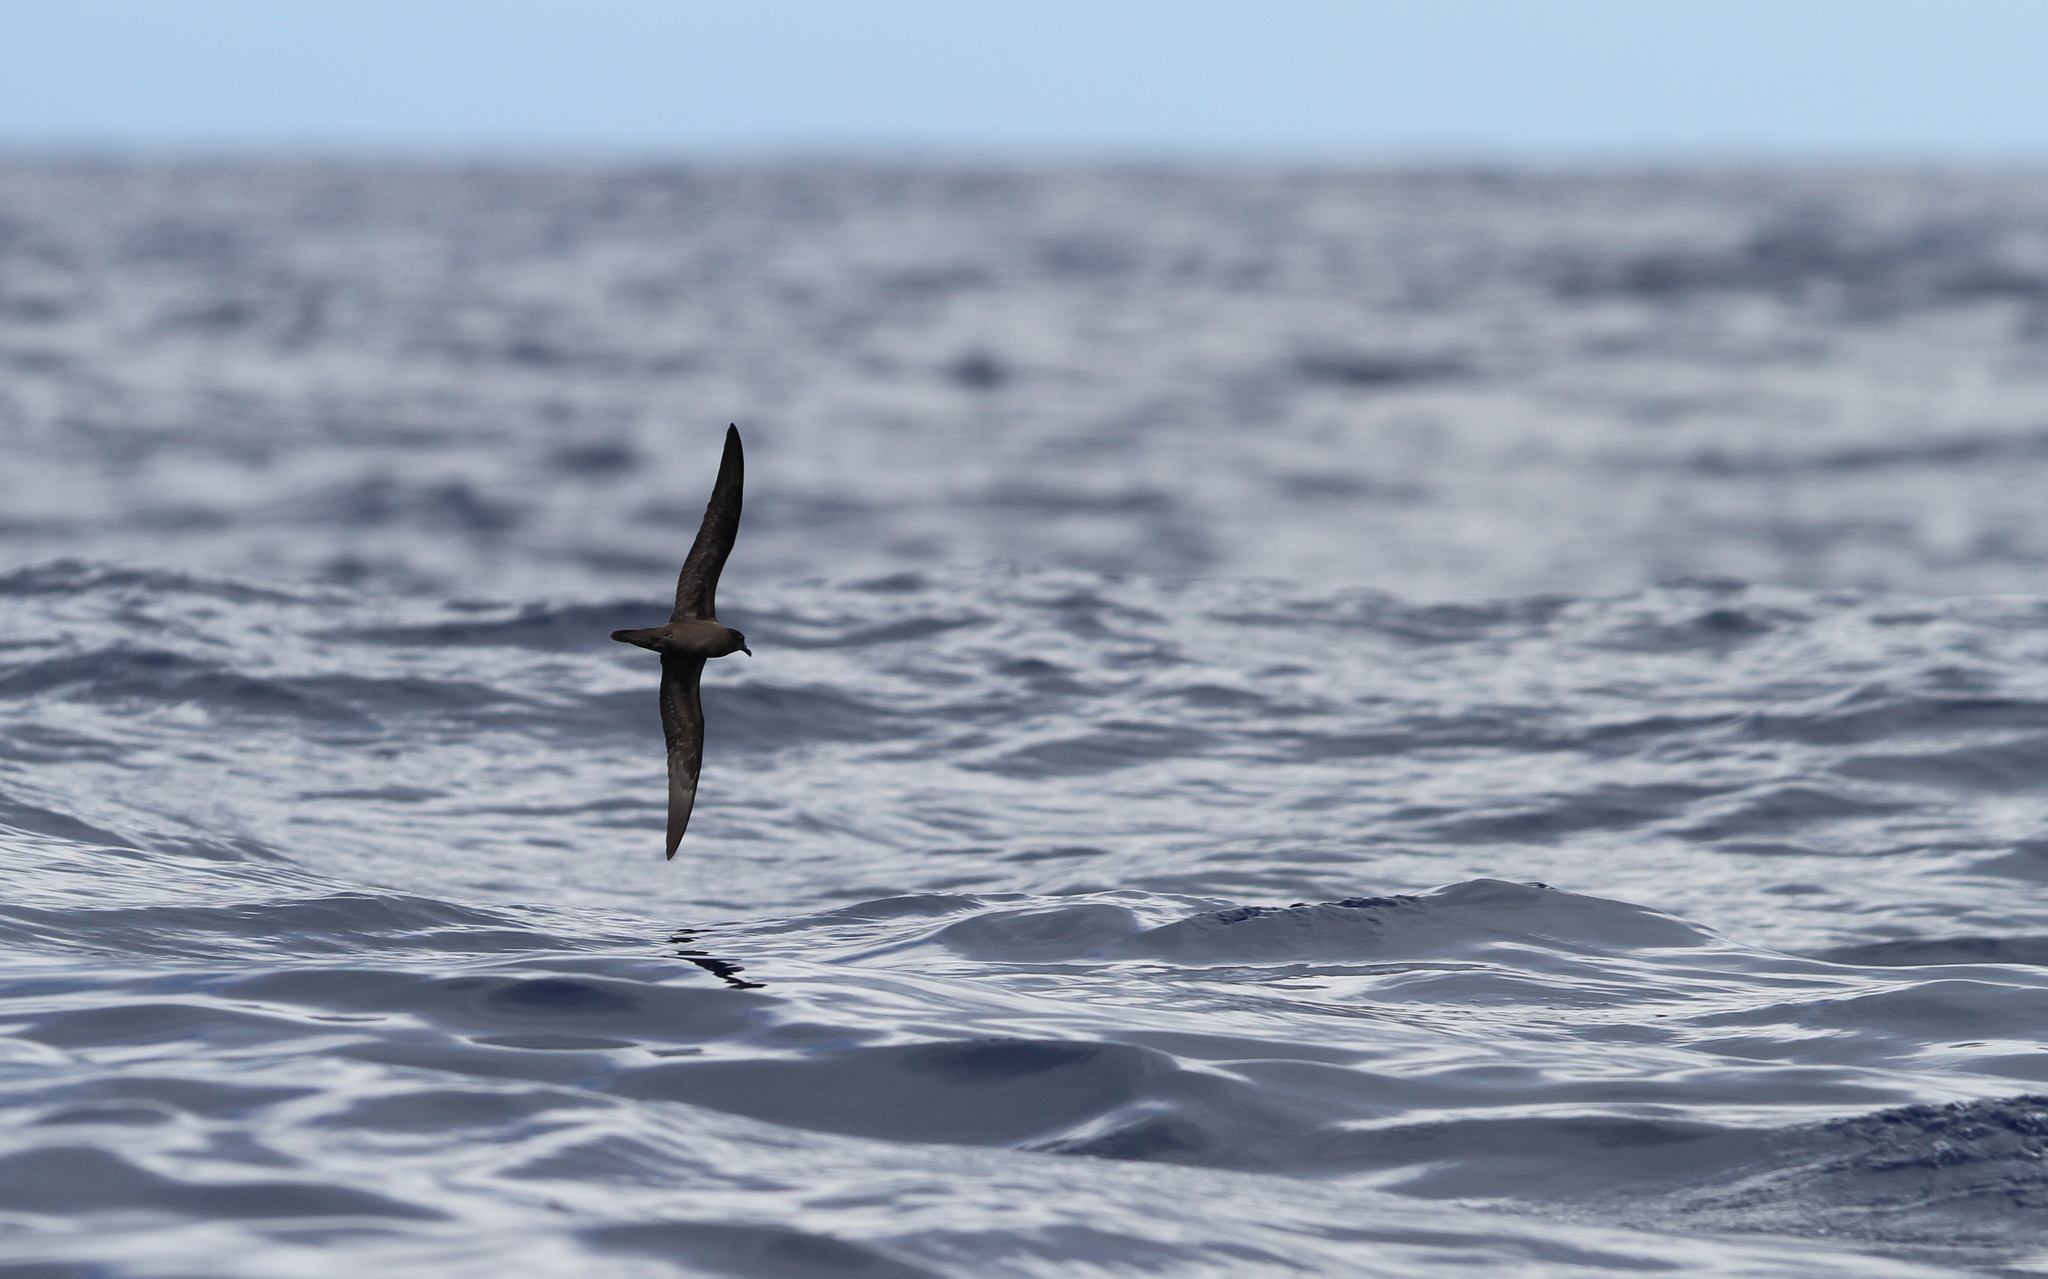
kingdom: Animalia
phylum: Chordata
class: Aves
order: Procellariiformes
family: Procellariidae
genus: Bulweria
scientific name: Bulweria bulwerii
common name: Bulwer's petrel
